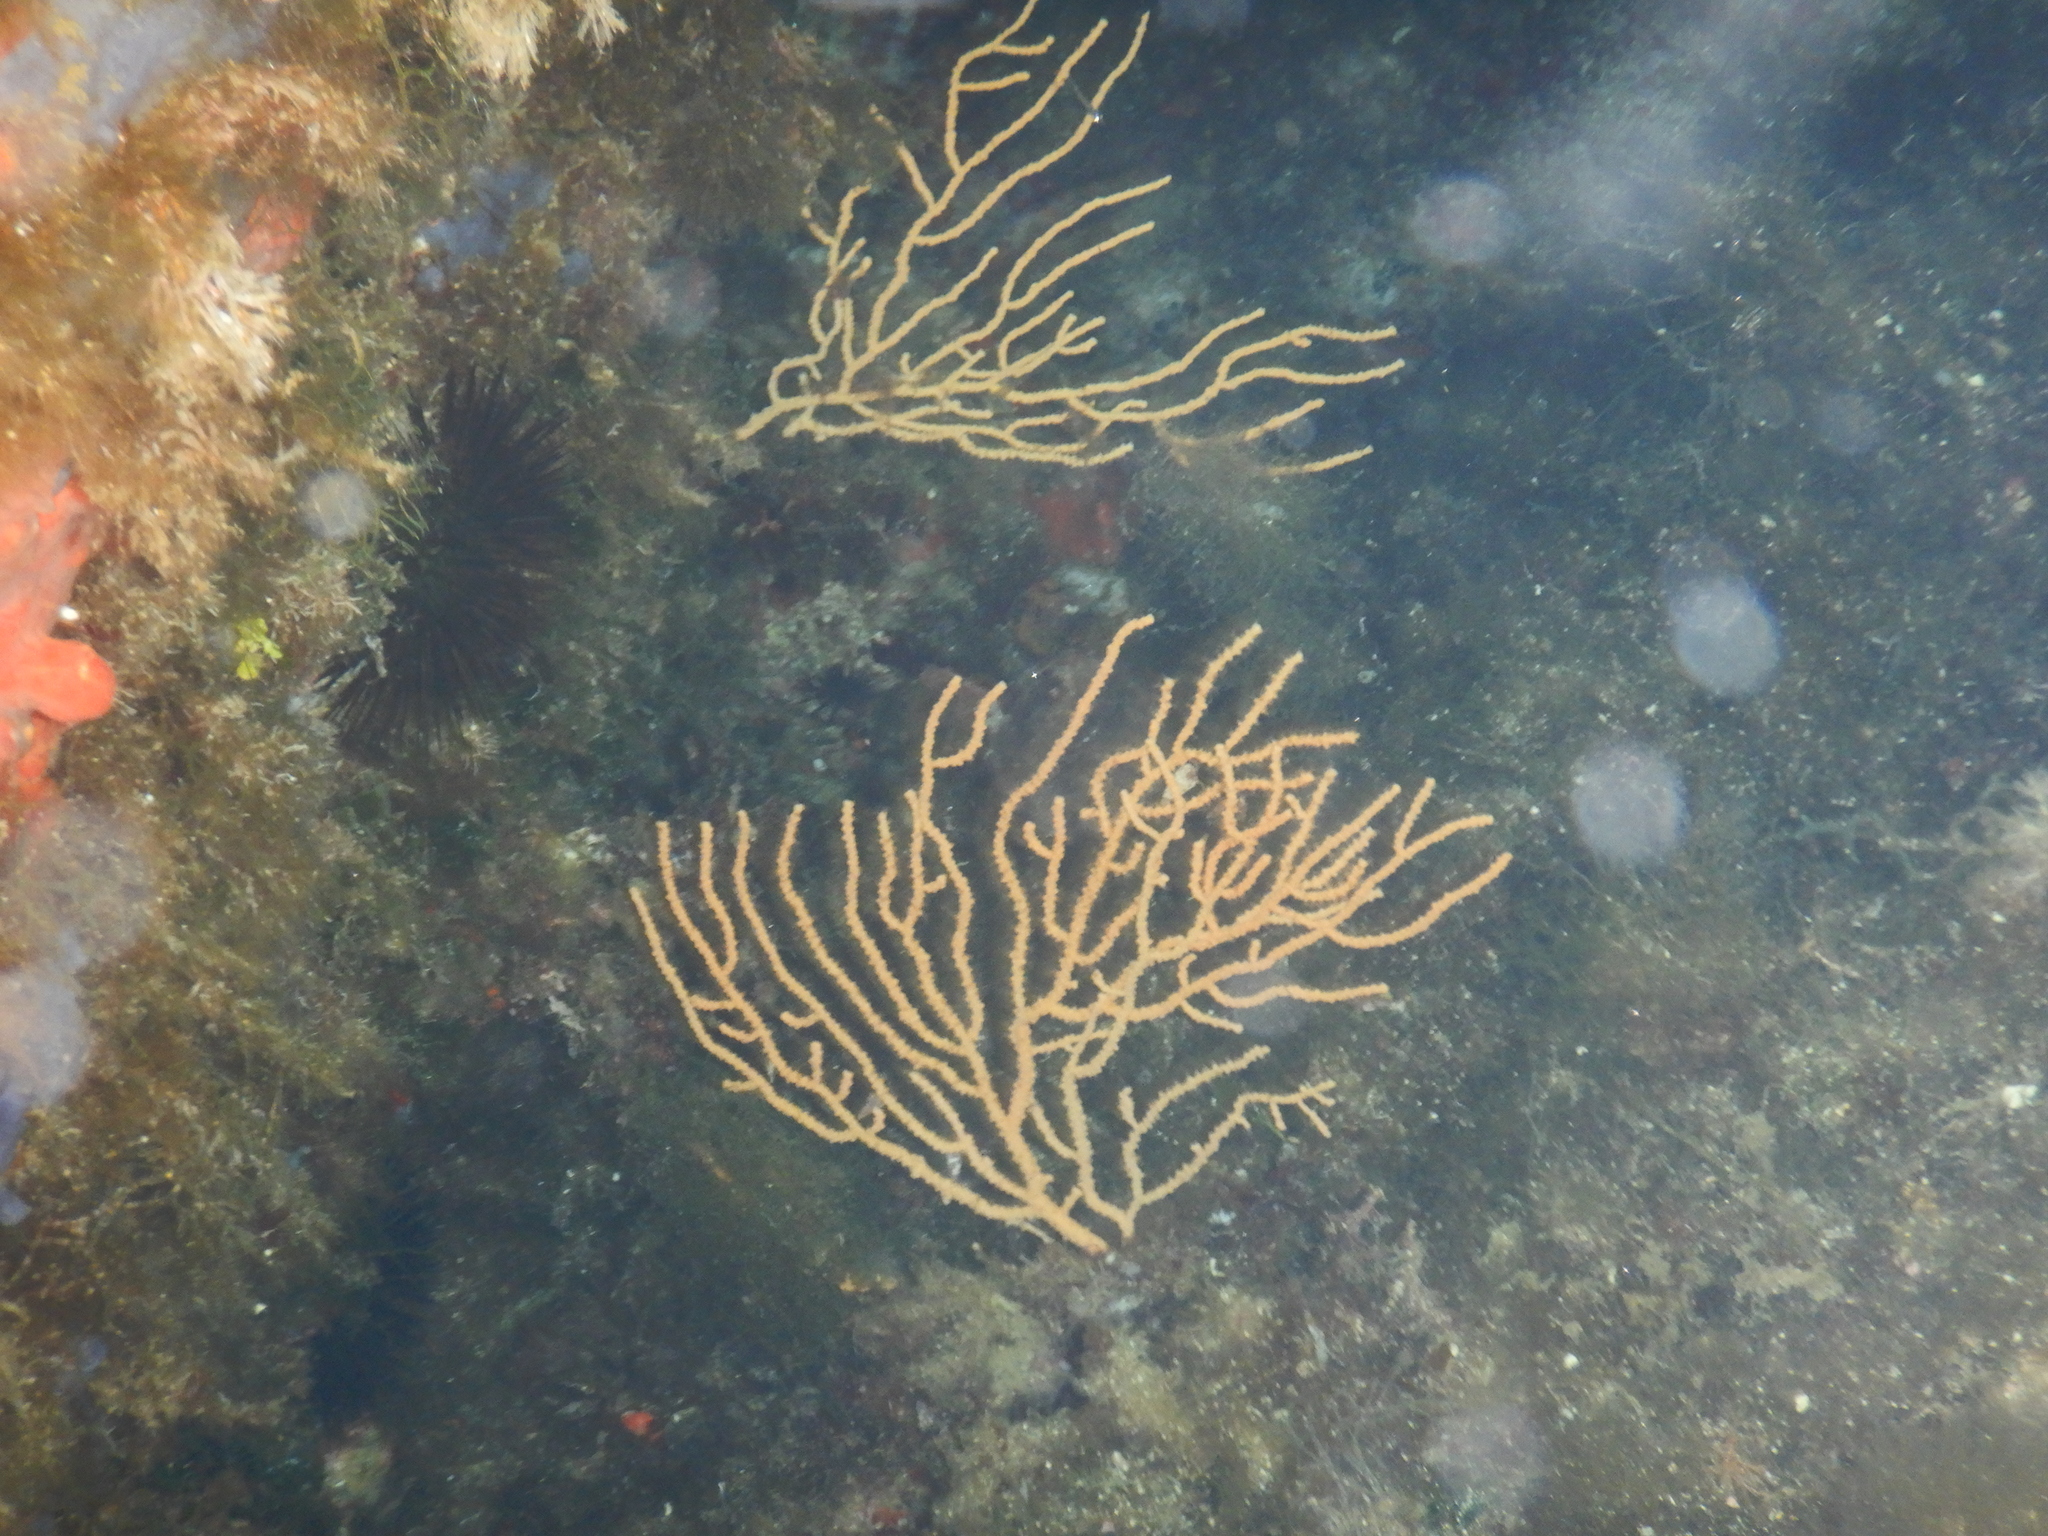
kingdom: Animalia
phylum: Cnidaria
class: Anthozoa
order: Malacalcyonacea
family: Eunicellidae
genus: Eunicella
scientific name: Eunicella verrucosa
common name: Pink sea-fan
